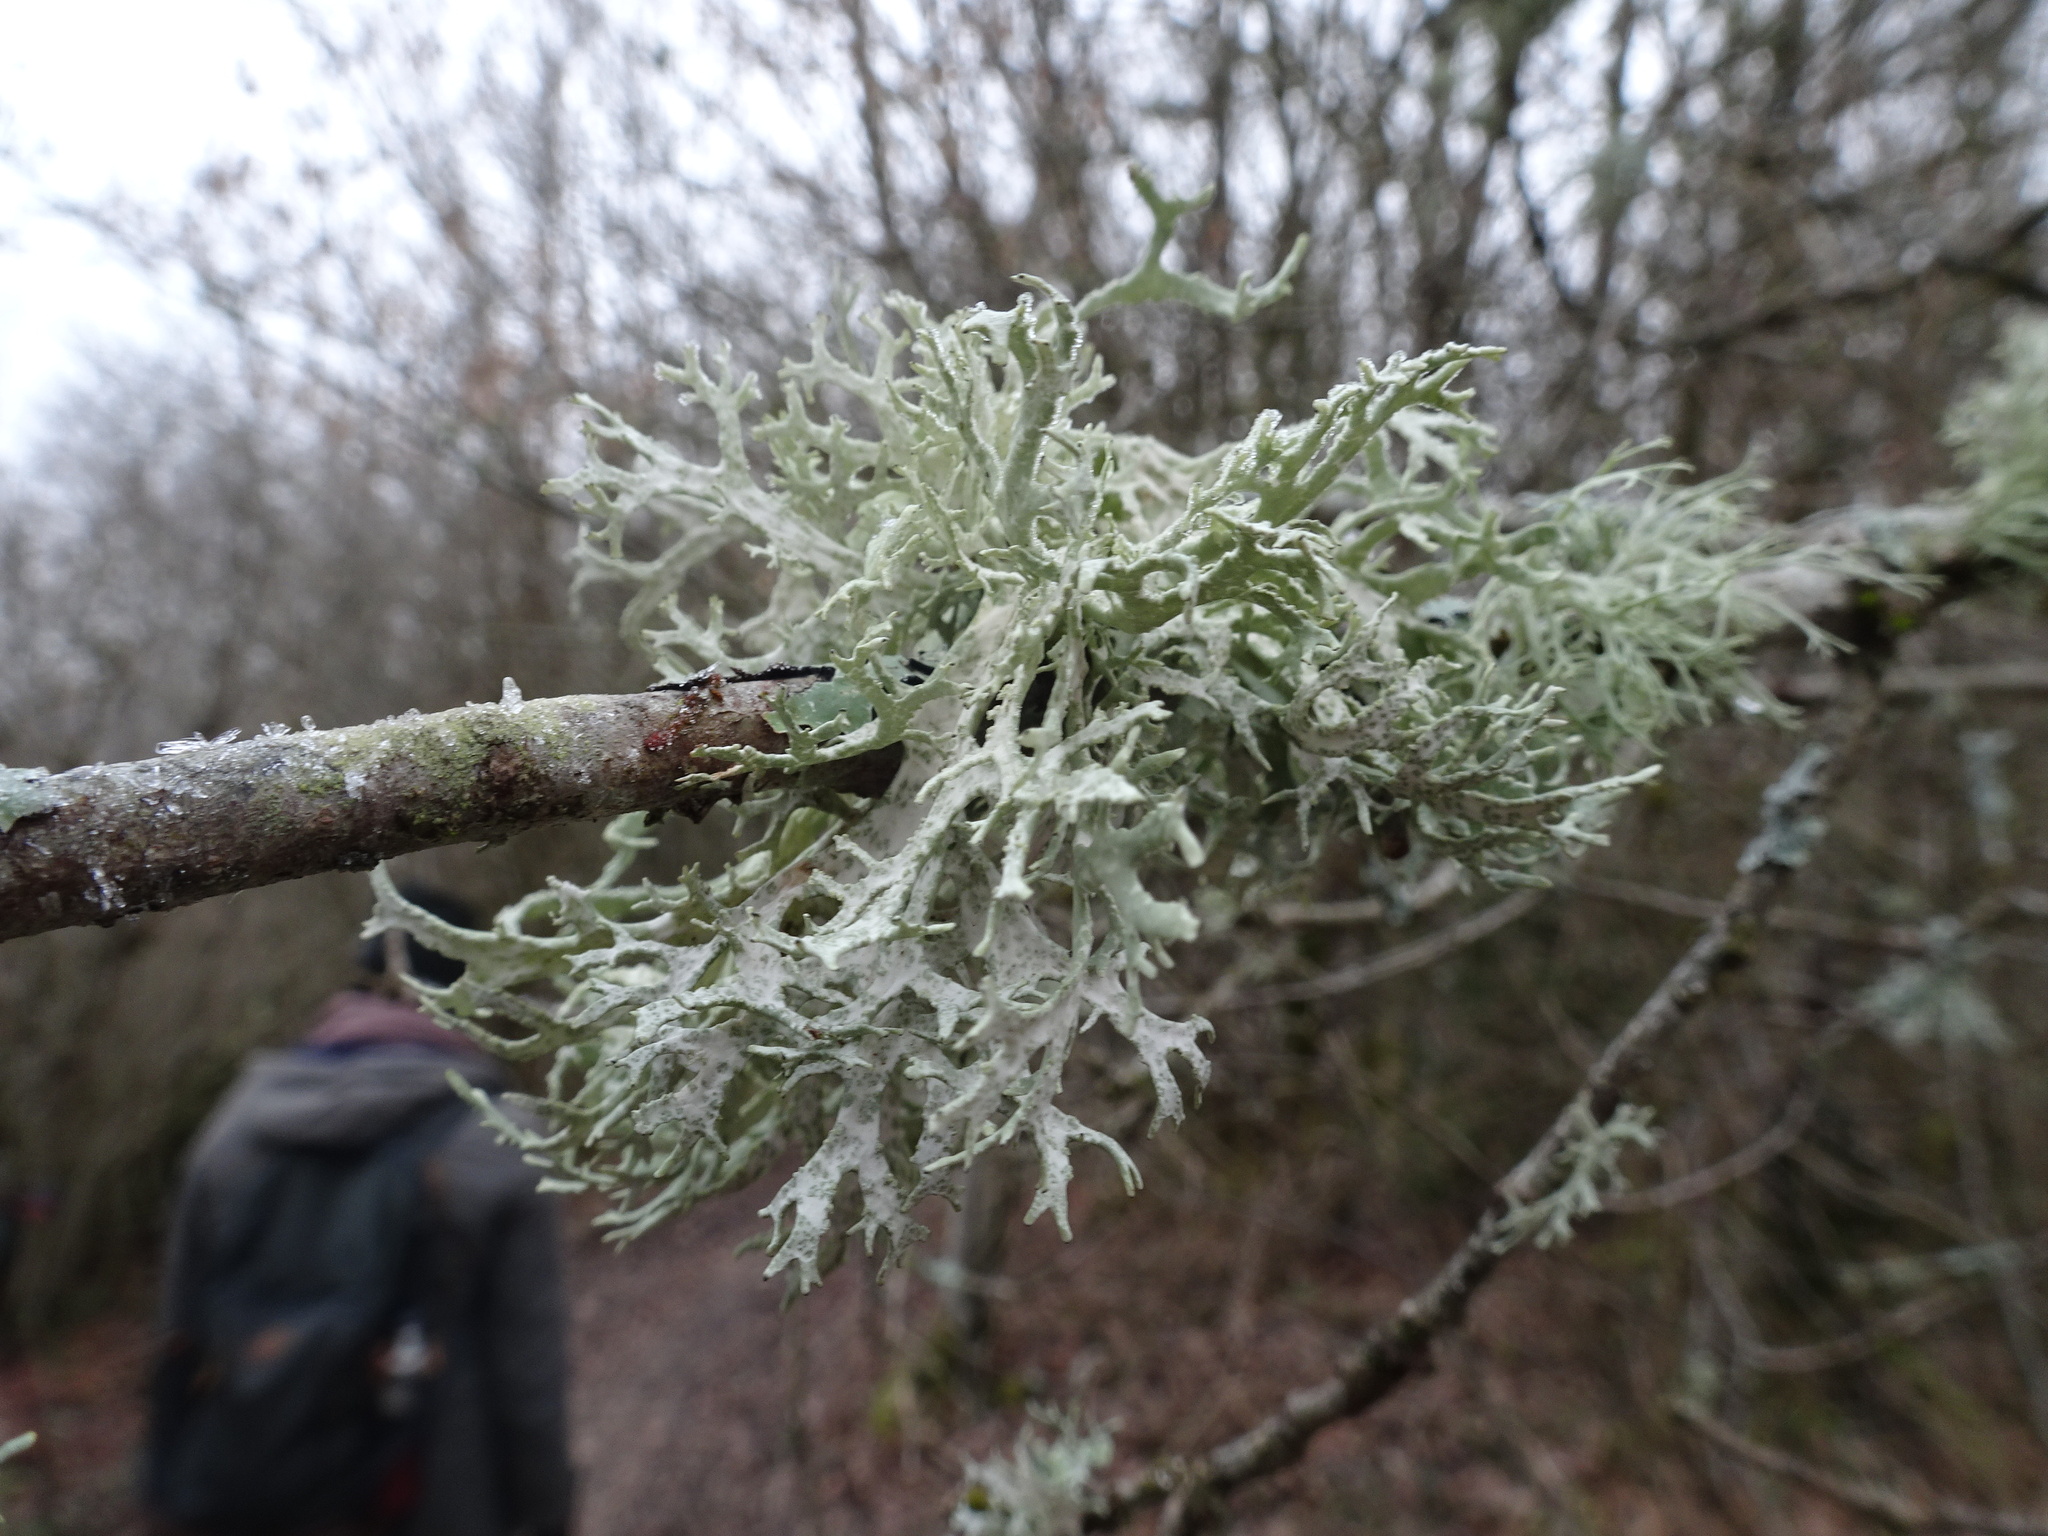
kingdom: Fungi
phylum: Ascomycota
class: Lecanoromycetes
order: Lecanorales
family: Parmeliaceae
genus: Evernia
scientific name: Evernia prunastri
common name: Oak moss
